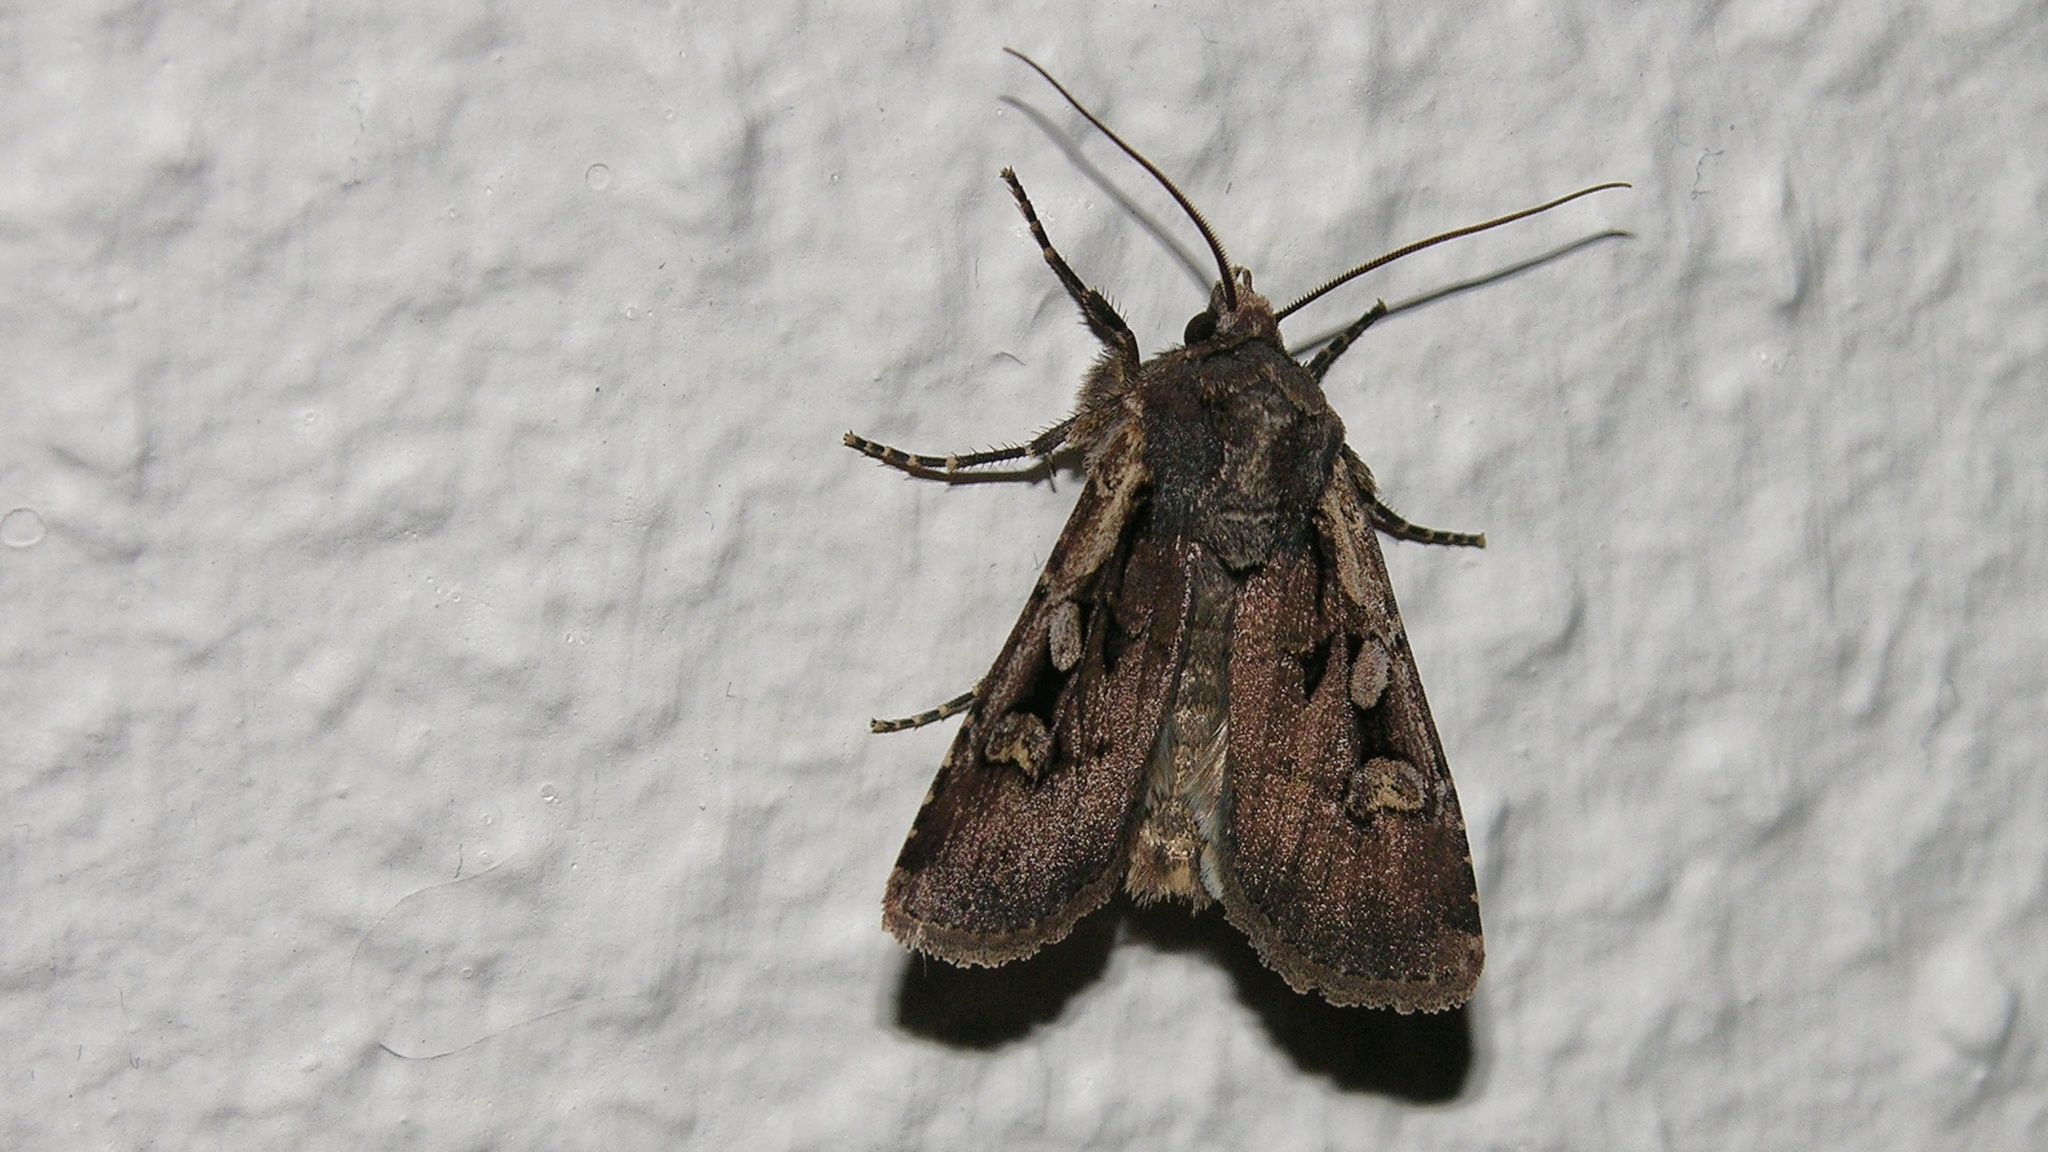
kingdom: Animalia
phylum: Arthropoda
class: Insecta
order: Lepidoptera
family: Noctuidae
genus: Euxoa
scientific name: Euxoa obelisca
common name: Square-spot dart
